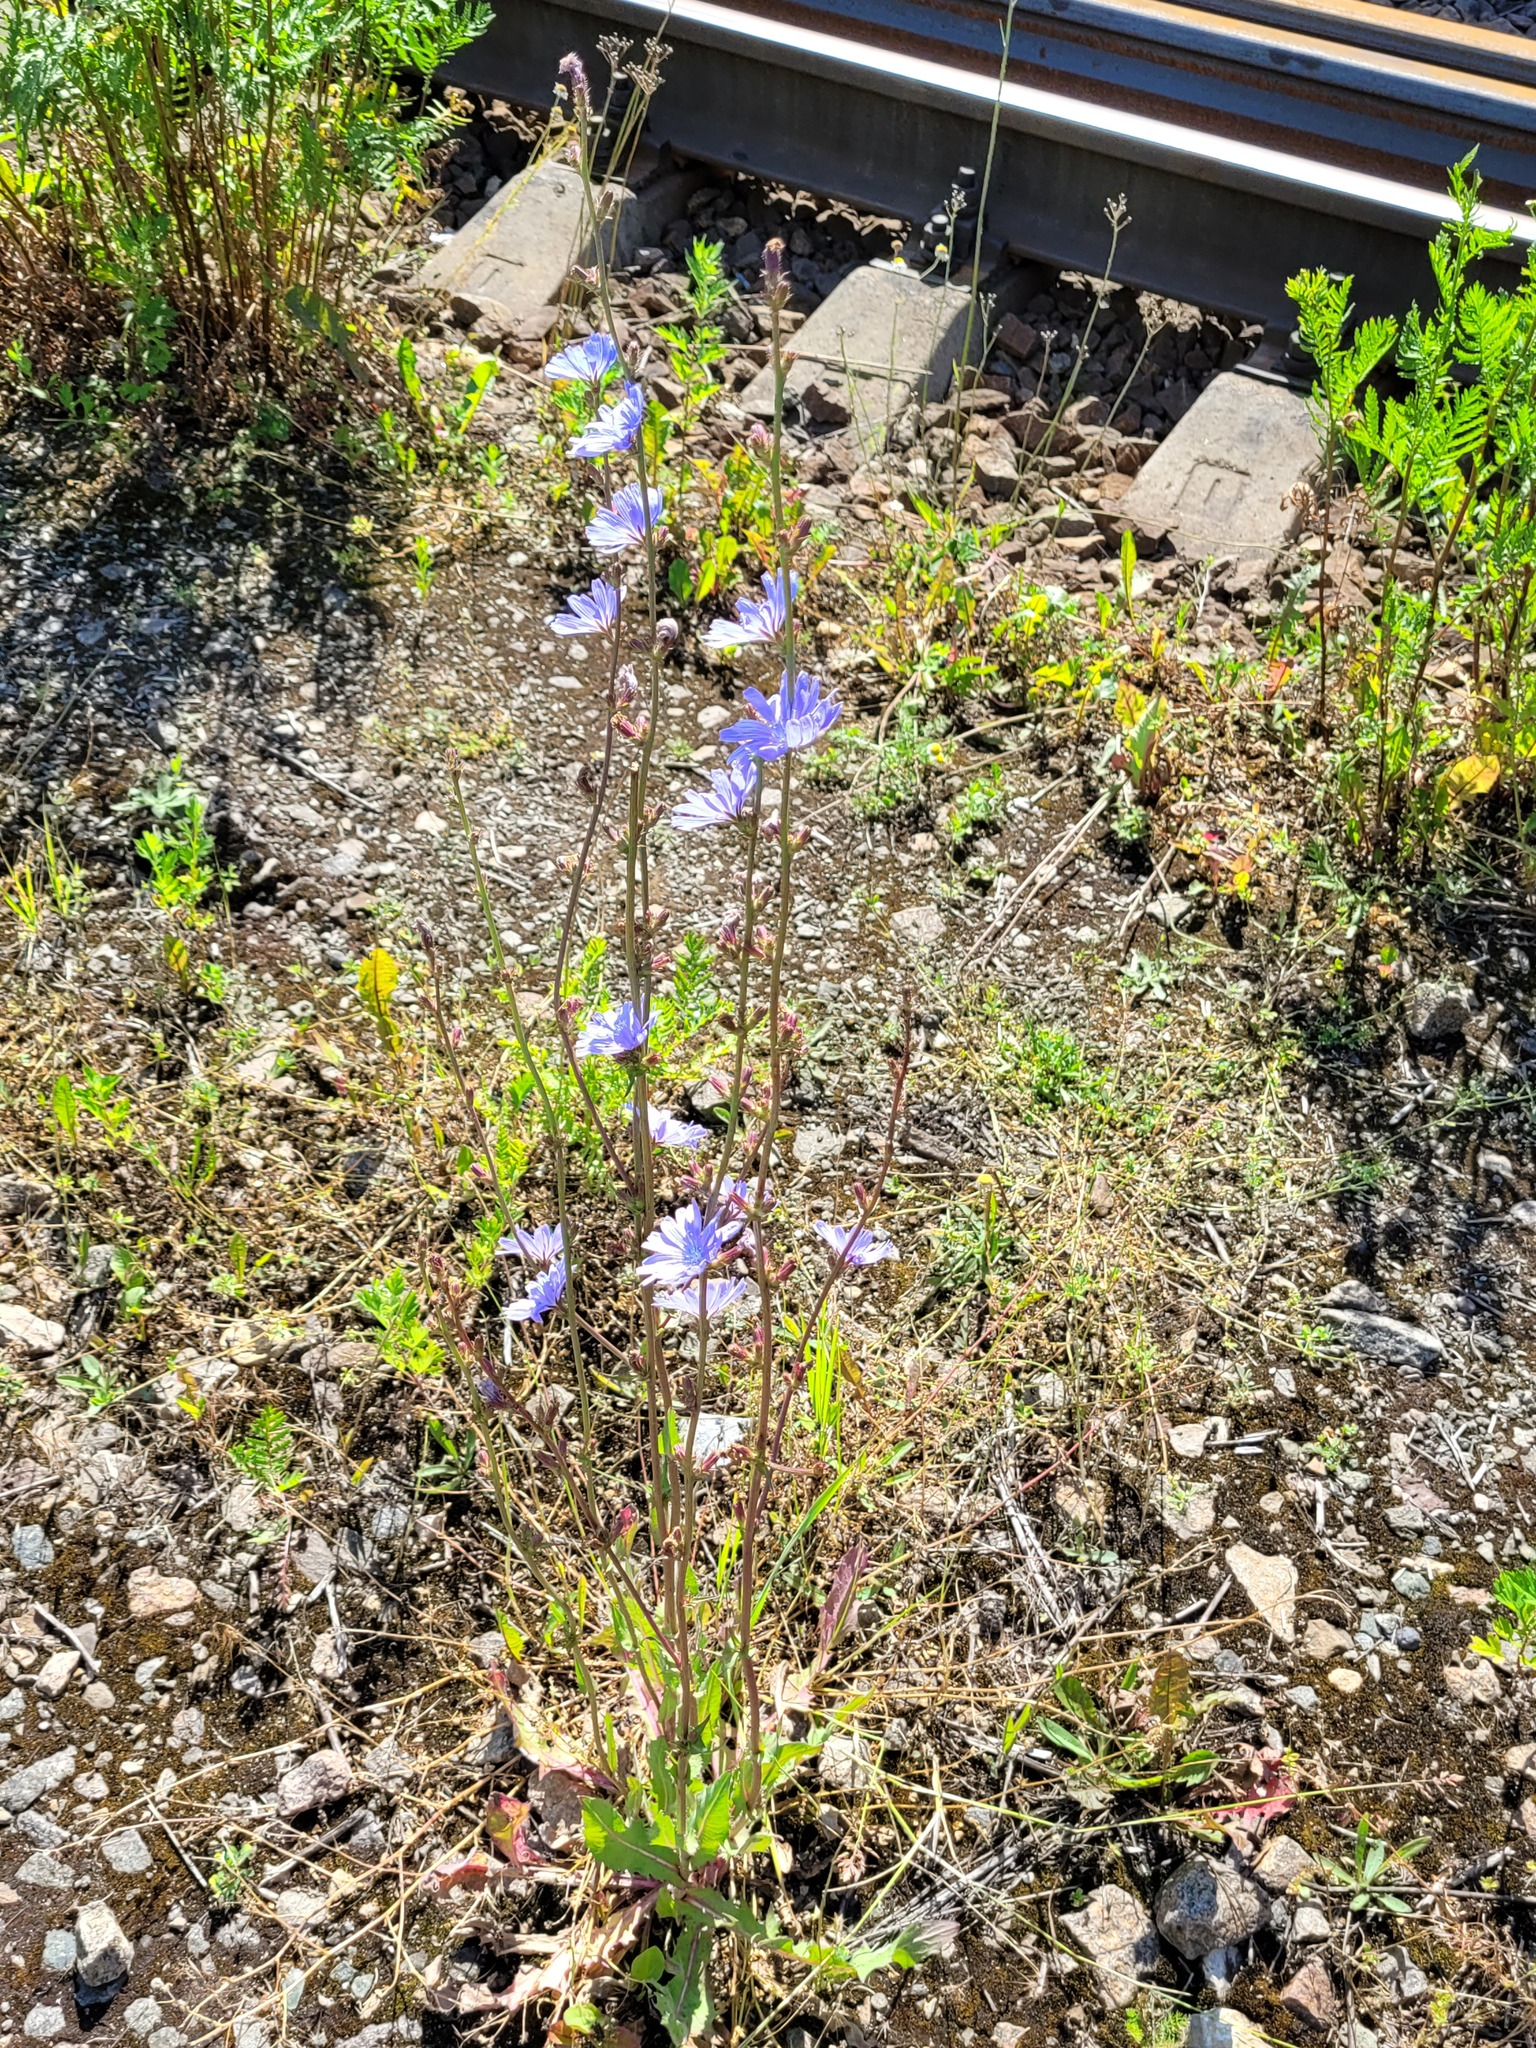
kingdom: Plantae
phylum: Tracheophyta
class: Magnoliopsida
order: Asterales
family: Asteraceae
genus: Cichorium
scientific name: Cichorium intybus
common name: Chicory
